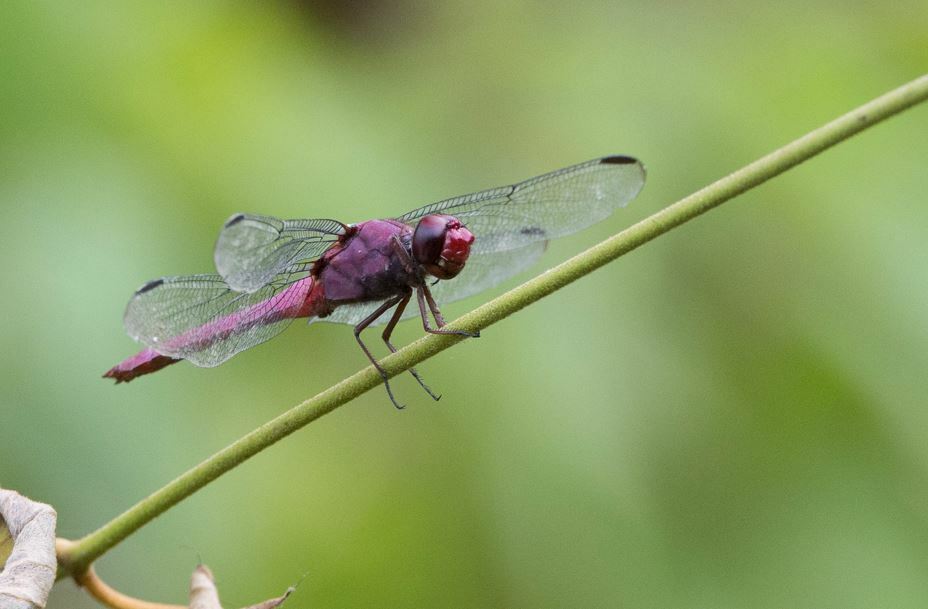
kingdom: Animalia
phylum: Arthropoda
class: Insecta
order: Odonata
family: Libellulidae
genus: Orthemis
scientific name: Orthemis discolor
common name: Carmine skimmer
